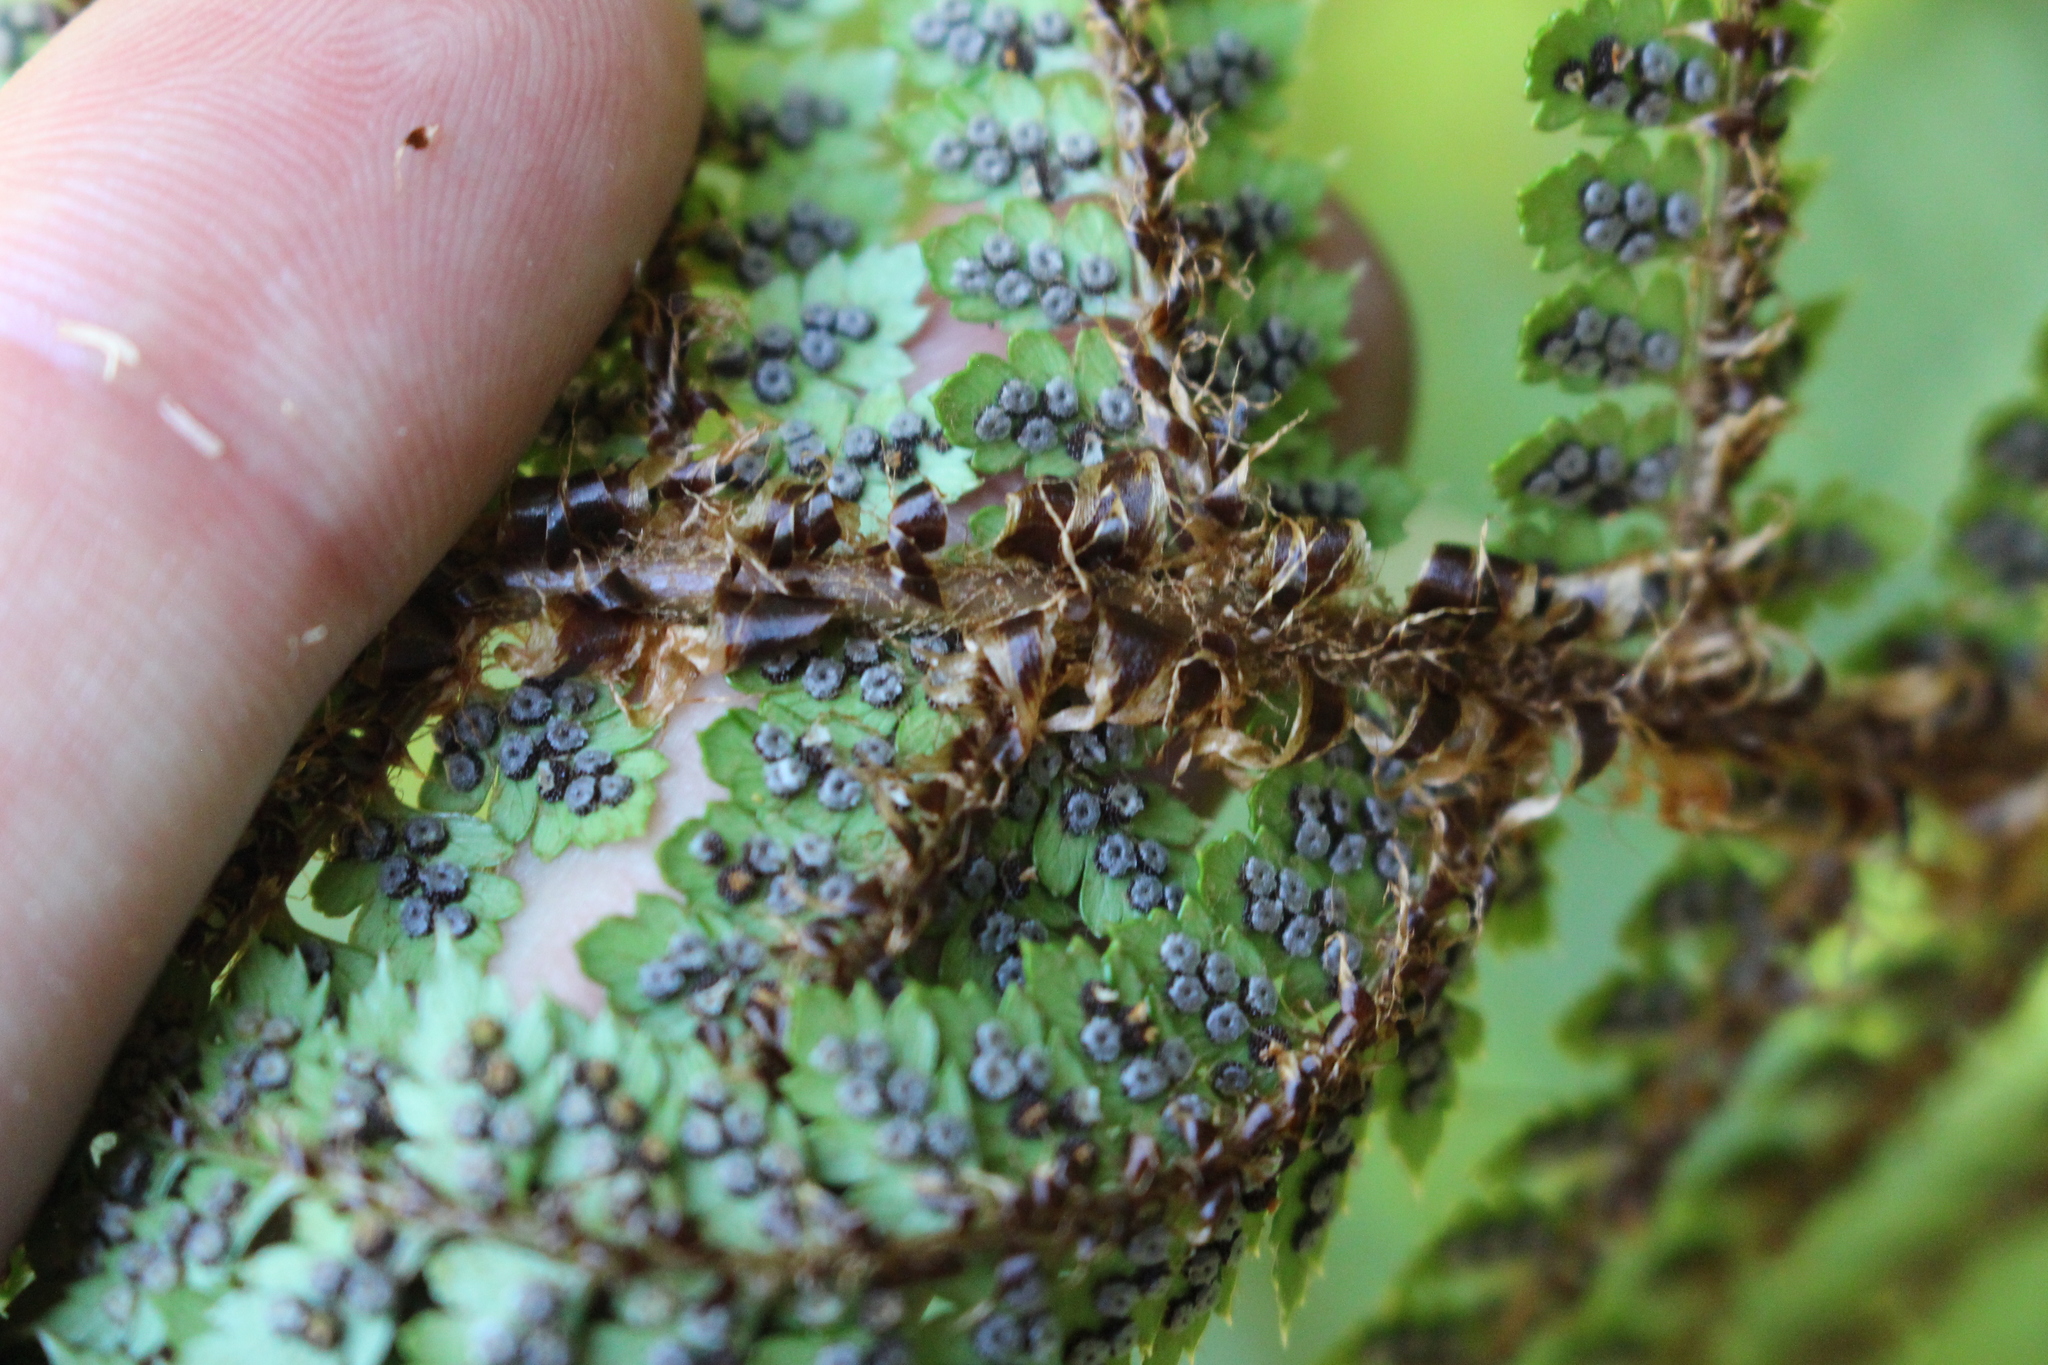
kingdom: Plantae
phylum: Tracheophyta
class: Polypodiopsida
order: Polypodiales
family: Dryopteridaceae
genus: Polystichum
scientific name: Polystichum vestitum
